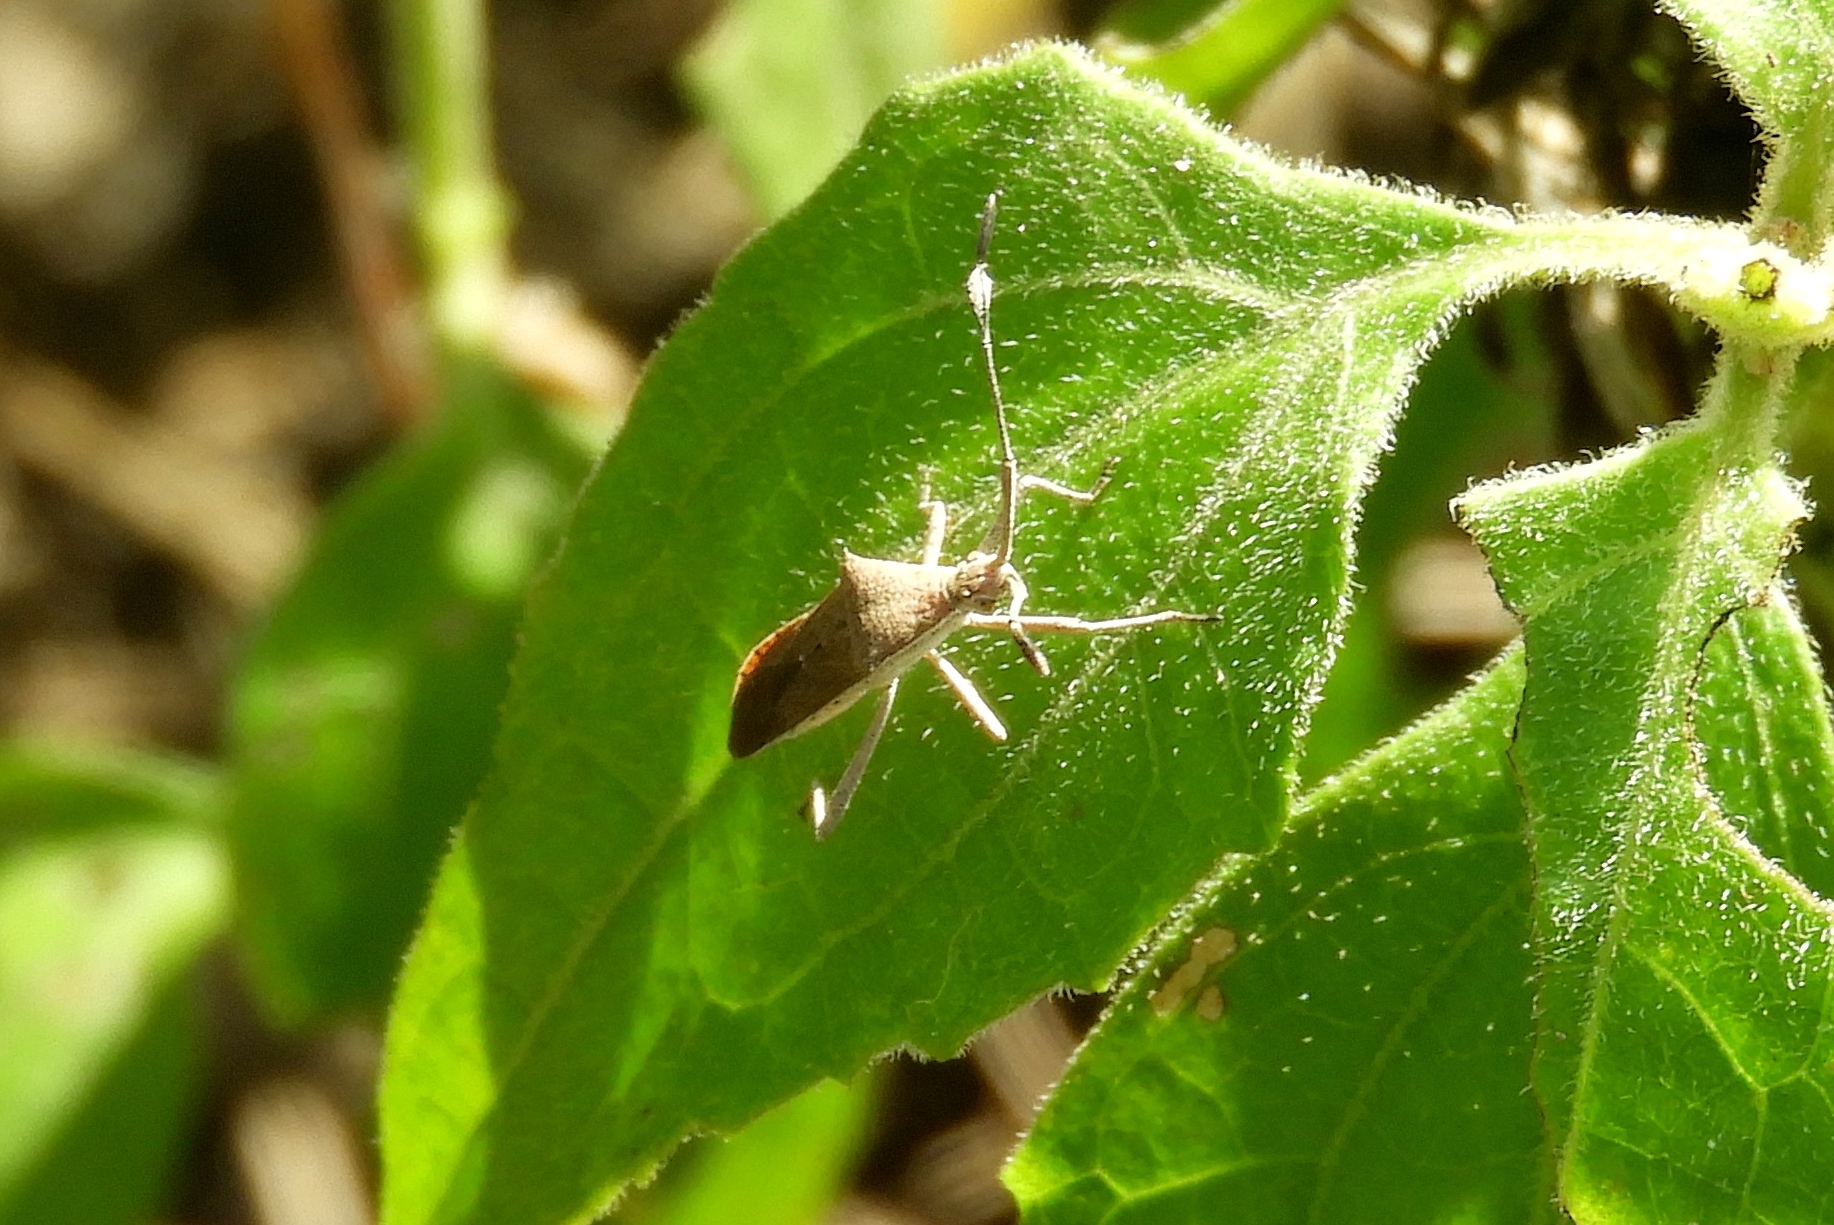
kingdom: Animalia
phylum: Arthropoda
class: Insecta
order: Hemiptera
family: Coreidae
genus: Chariesterus
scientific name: Chariesterus
